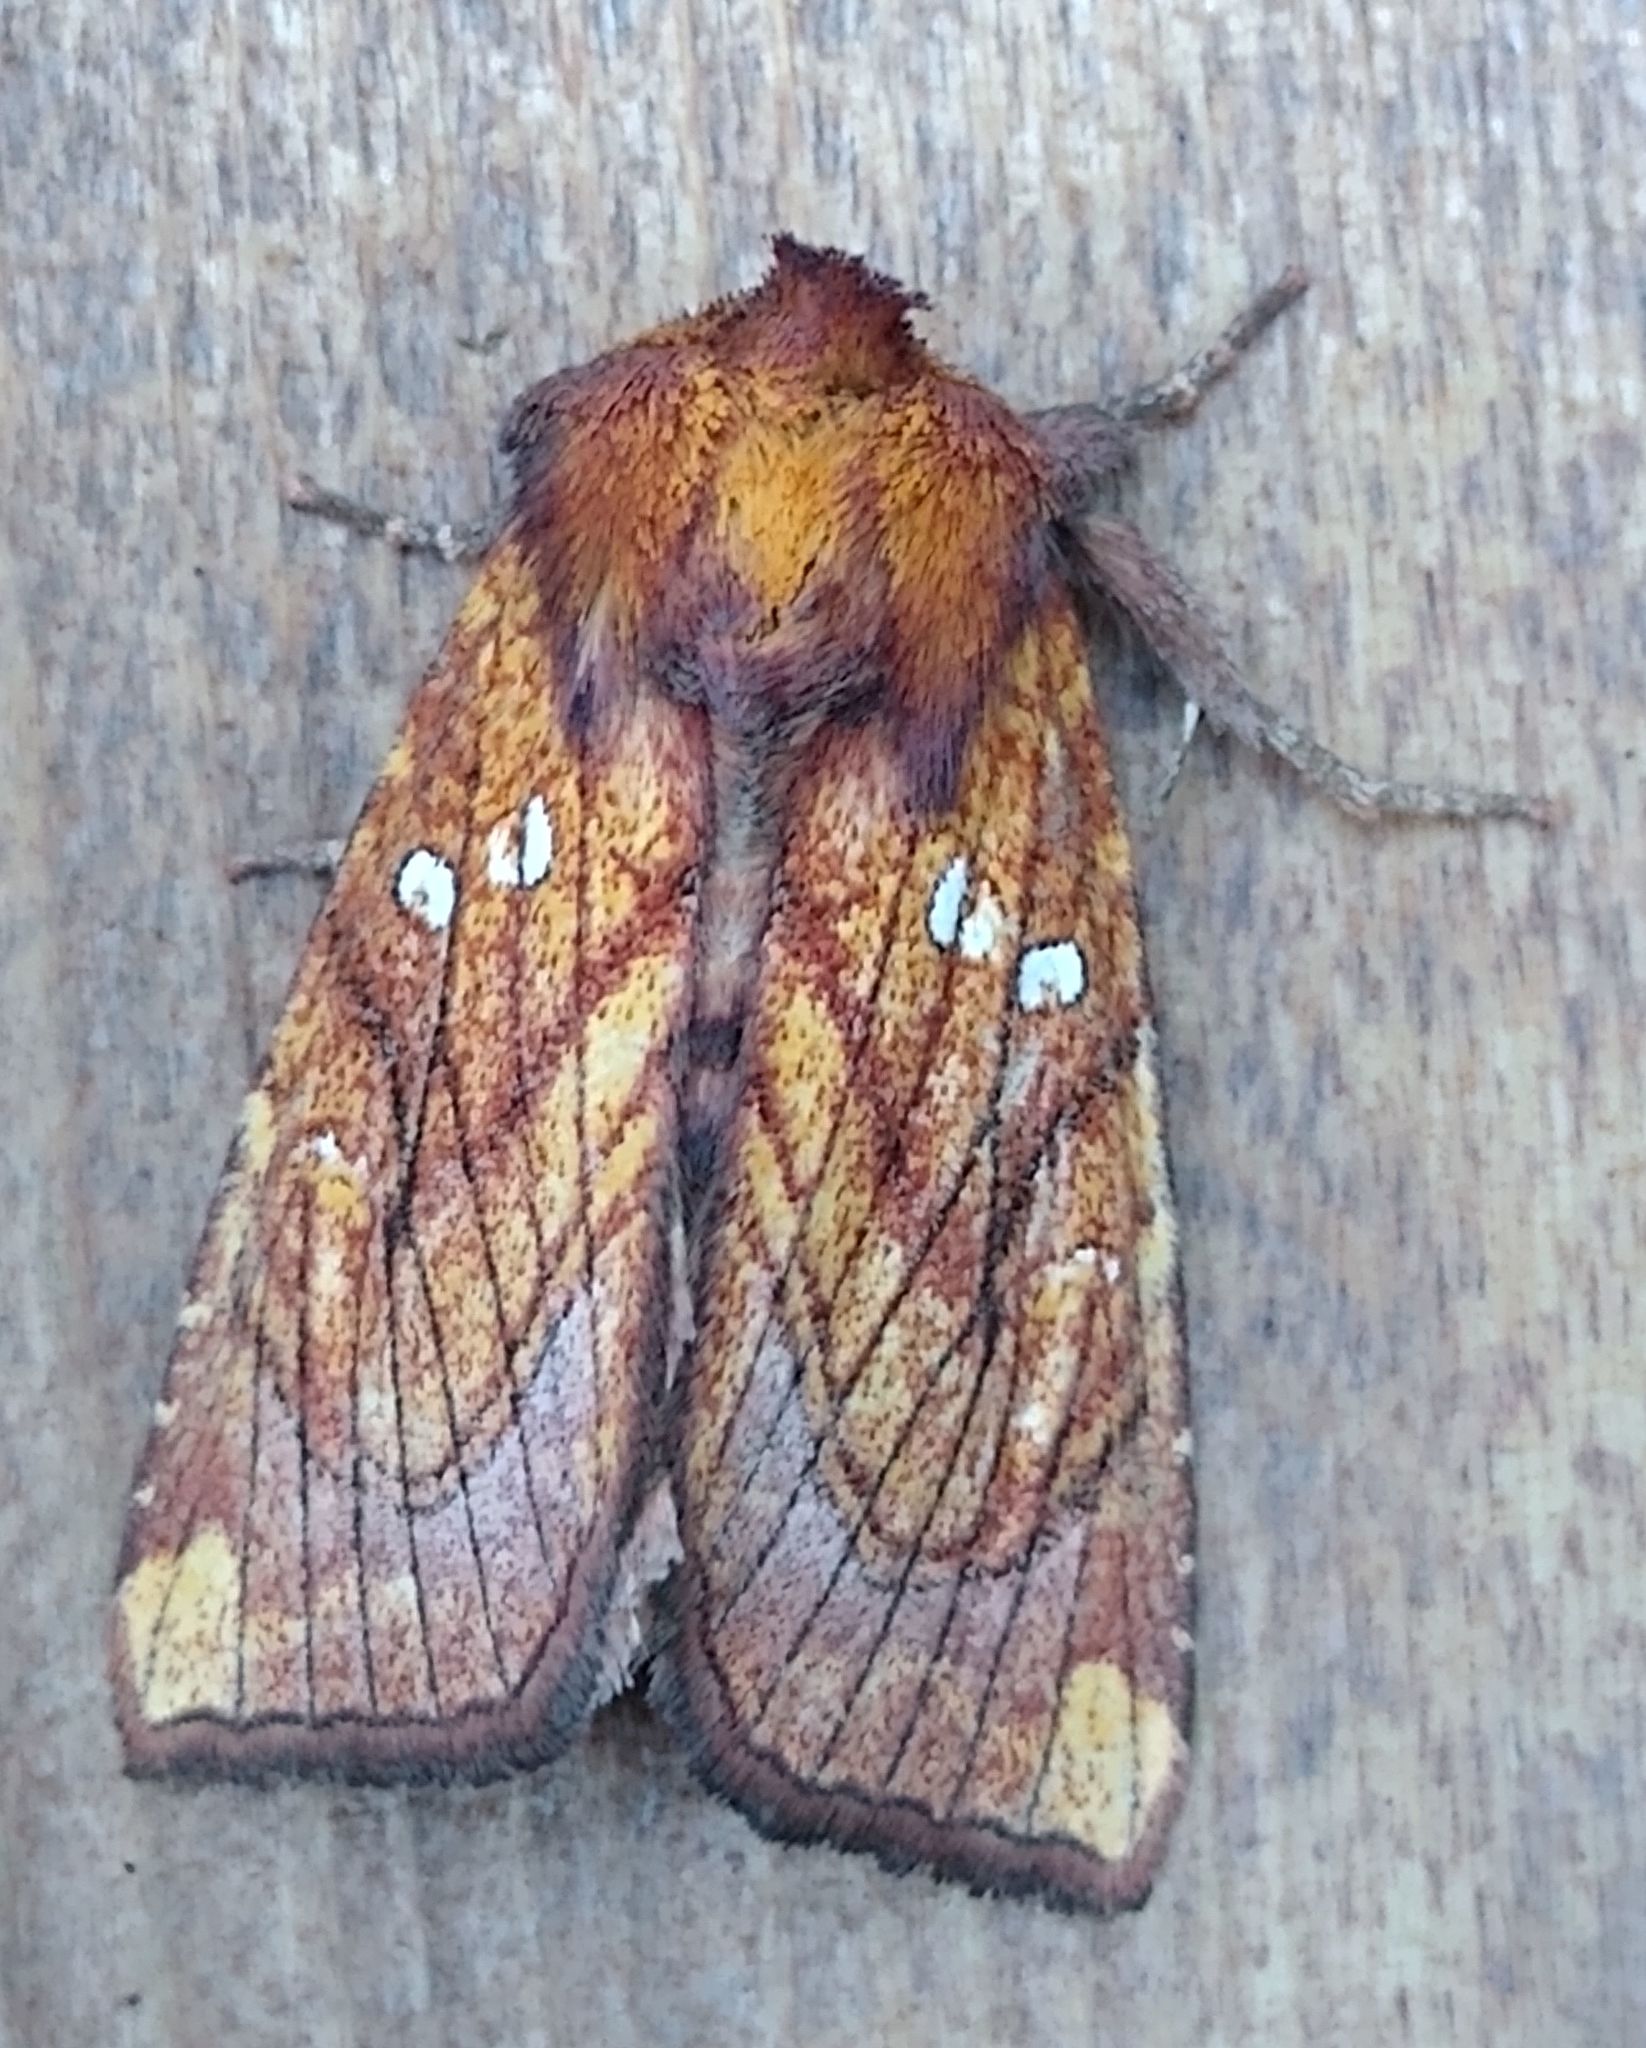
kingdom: Animalia
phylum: Arthropoda
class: Insecta
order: Lepidoptera
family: Noctuidae
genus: Papaipema
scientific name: Papaipema inquaesita
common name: Sensitive fern borer moth
